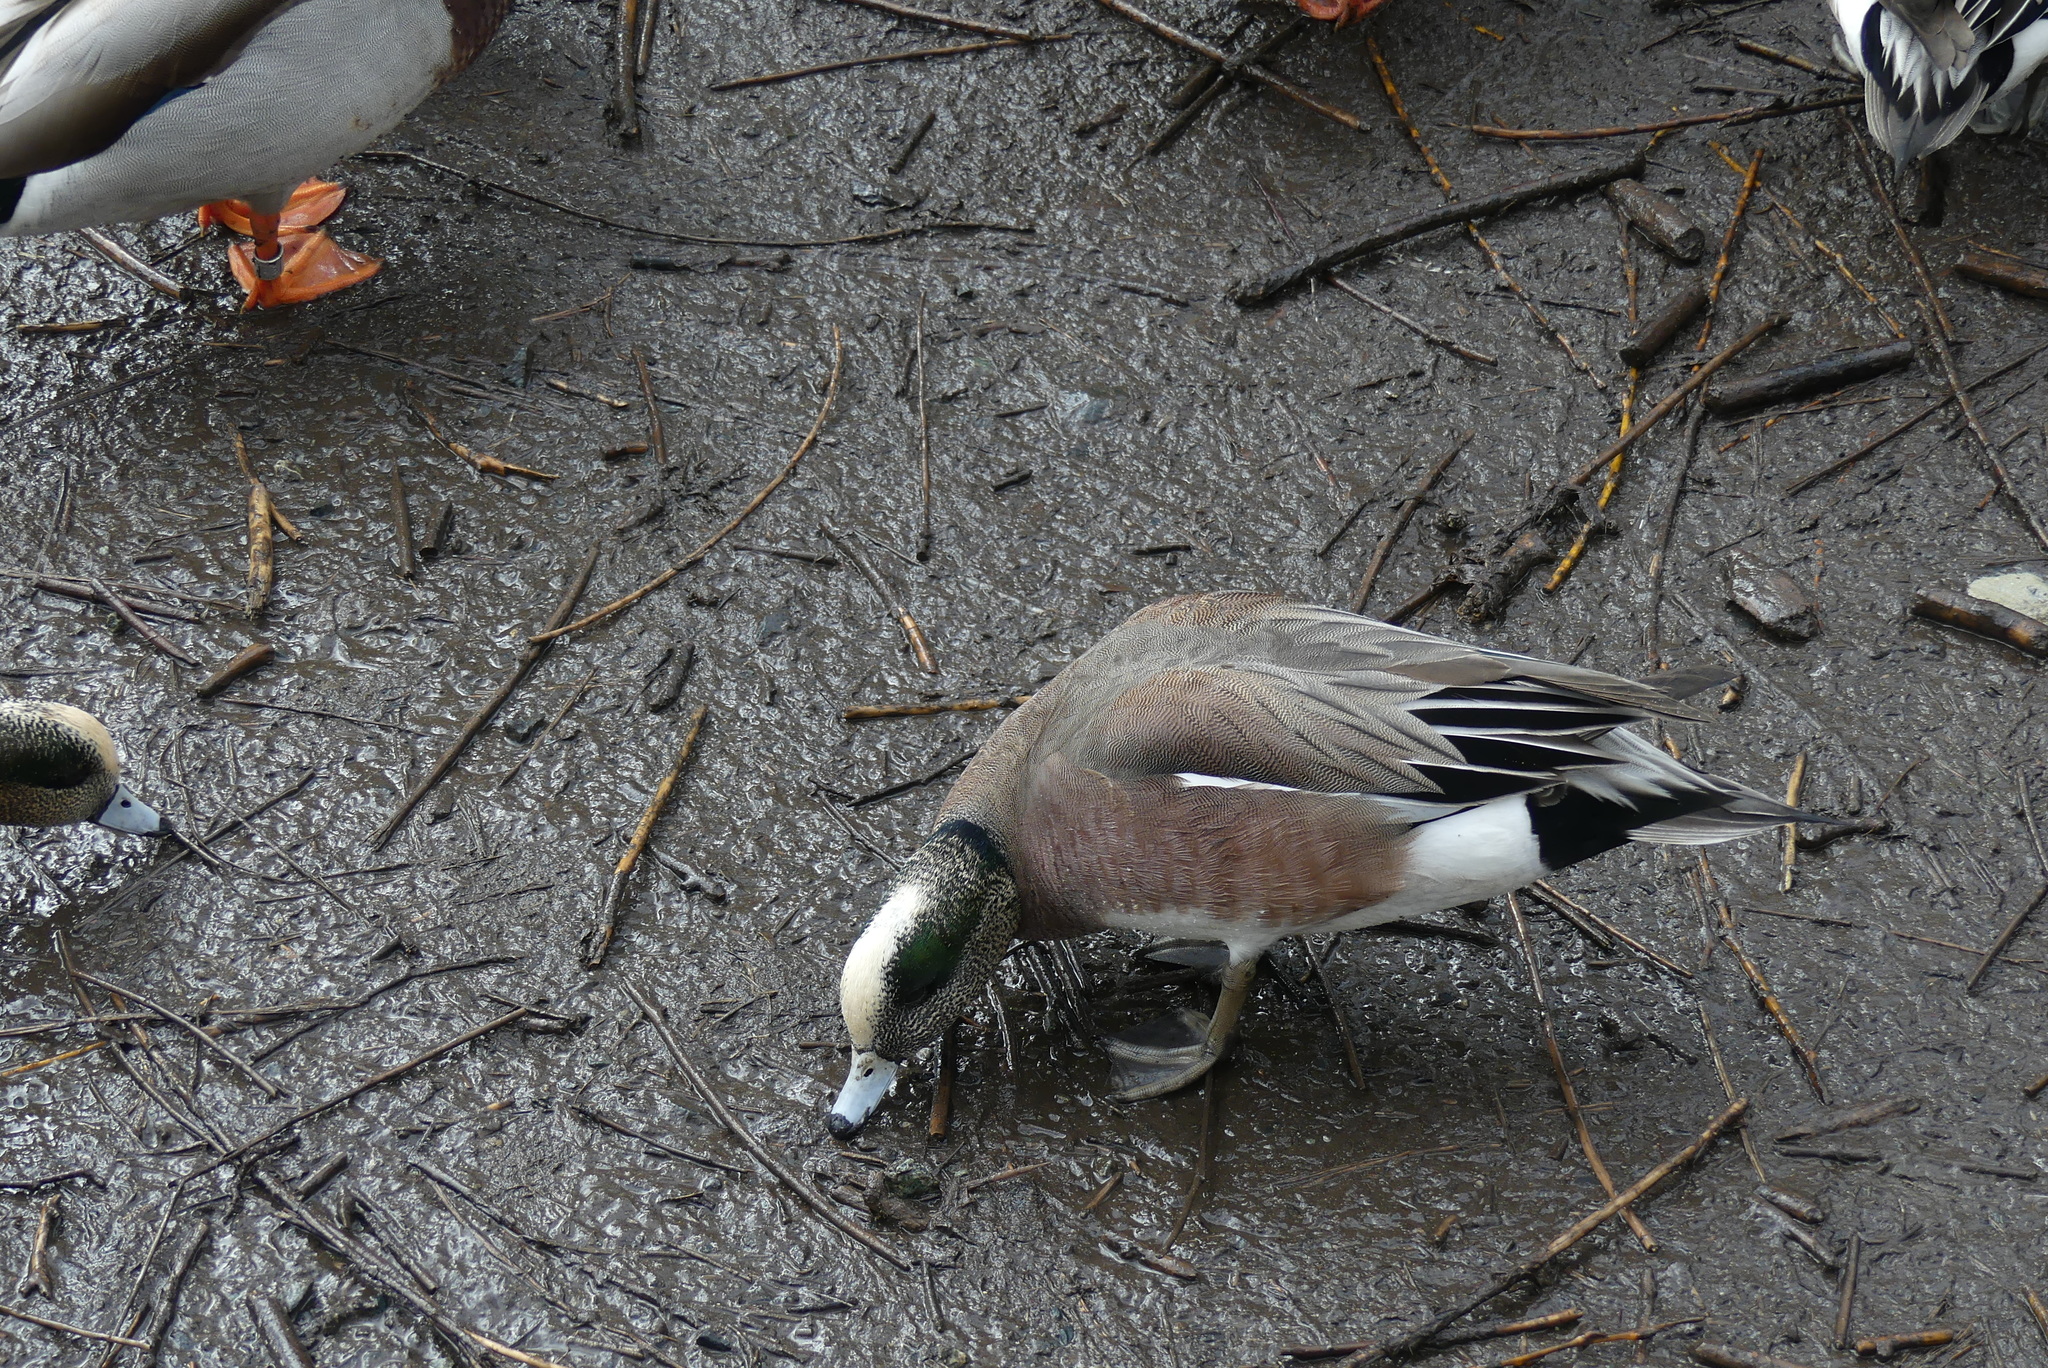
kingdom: Animalia
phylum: Chordata
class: Aves
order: Anseriformes
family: Anatidae
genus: Mareca
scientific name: Mareca americana
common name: American wigeon
